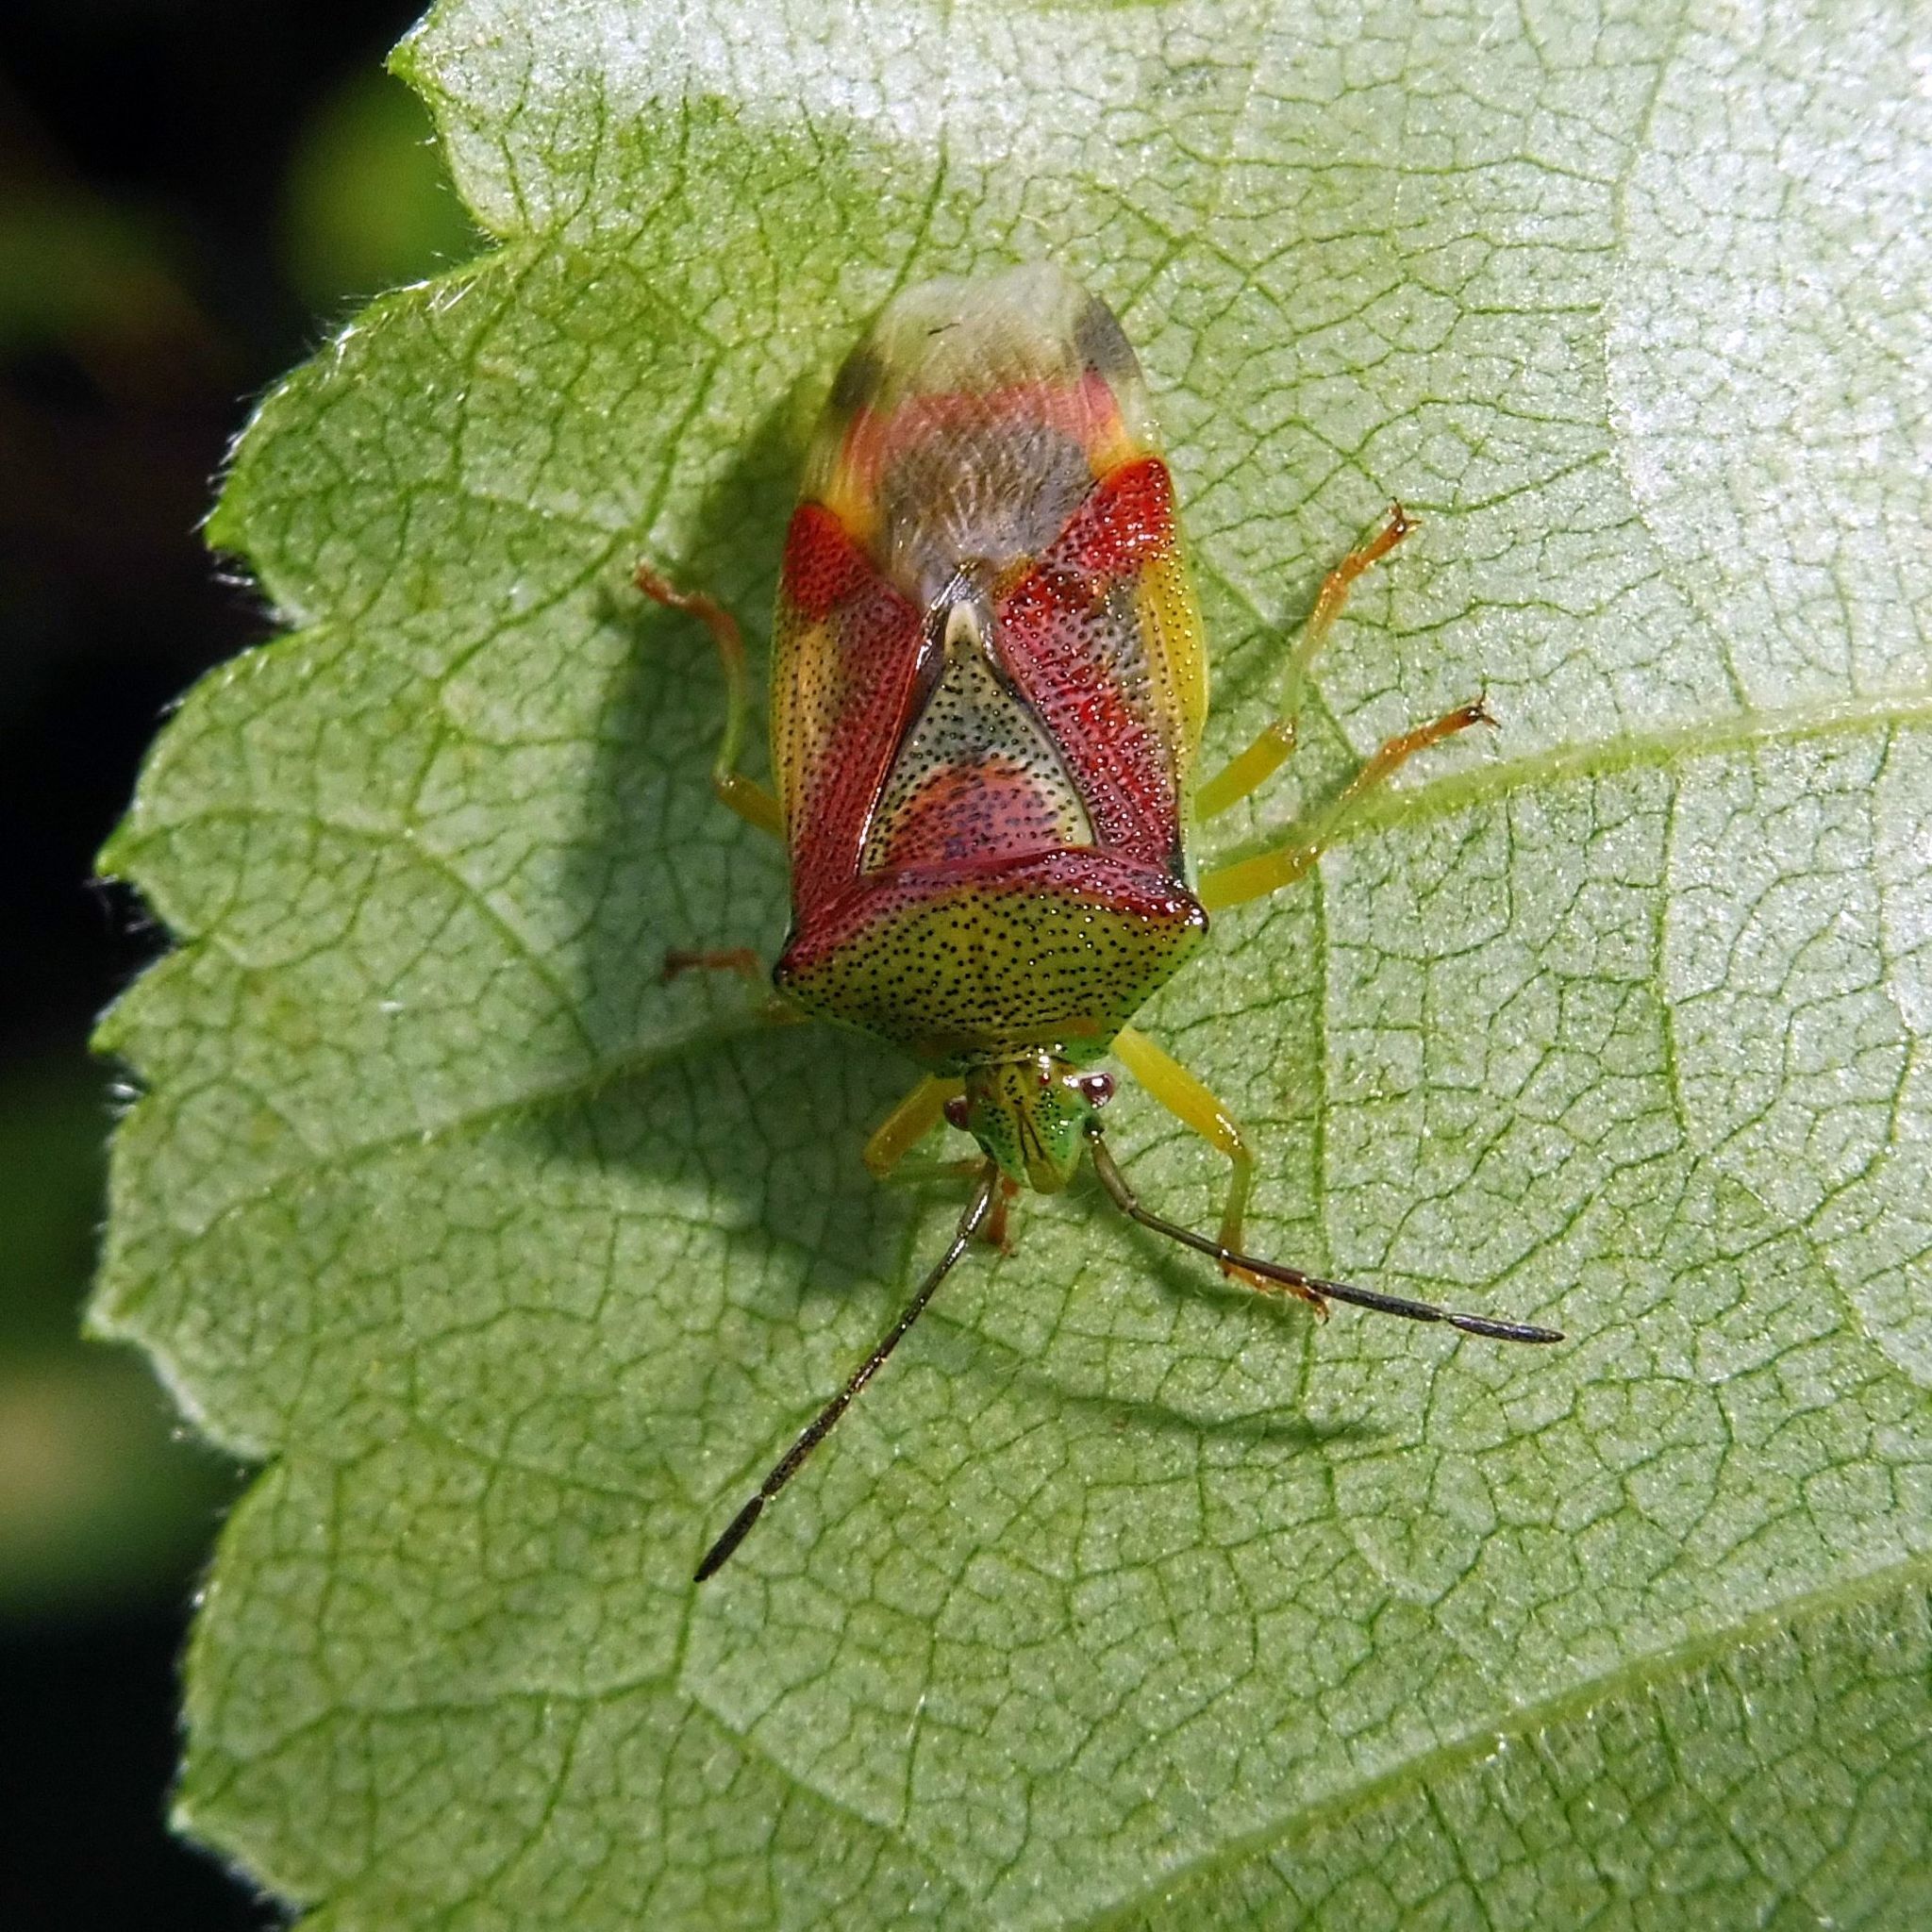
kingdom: Animalia
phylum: Arthropoda
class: Insecta
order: Hemiptera
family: Acanthosomatidae
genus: Elasmostethus
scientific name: Elasmostethus interstinctus
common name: Birch shieldbug
